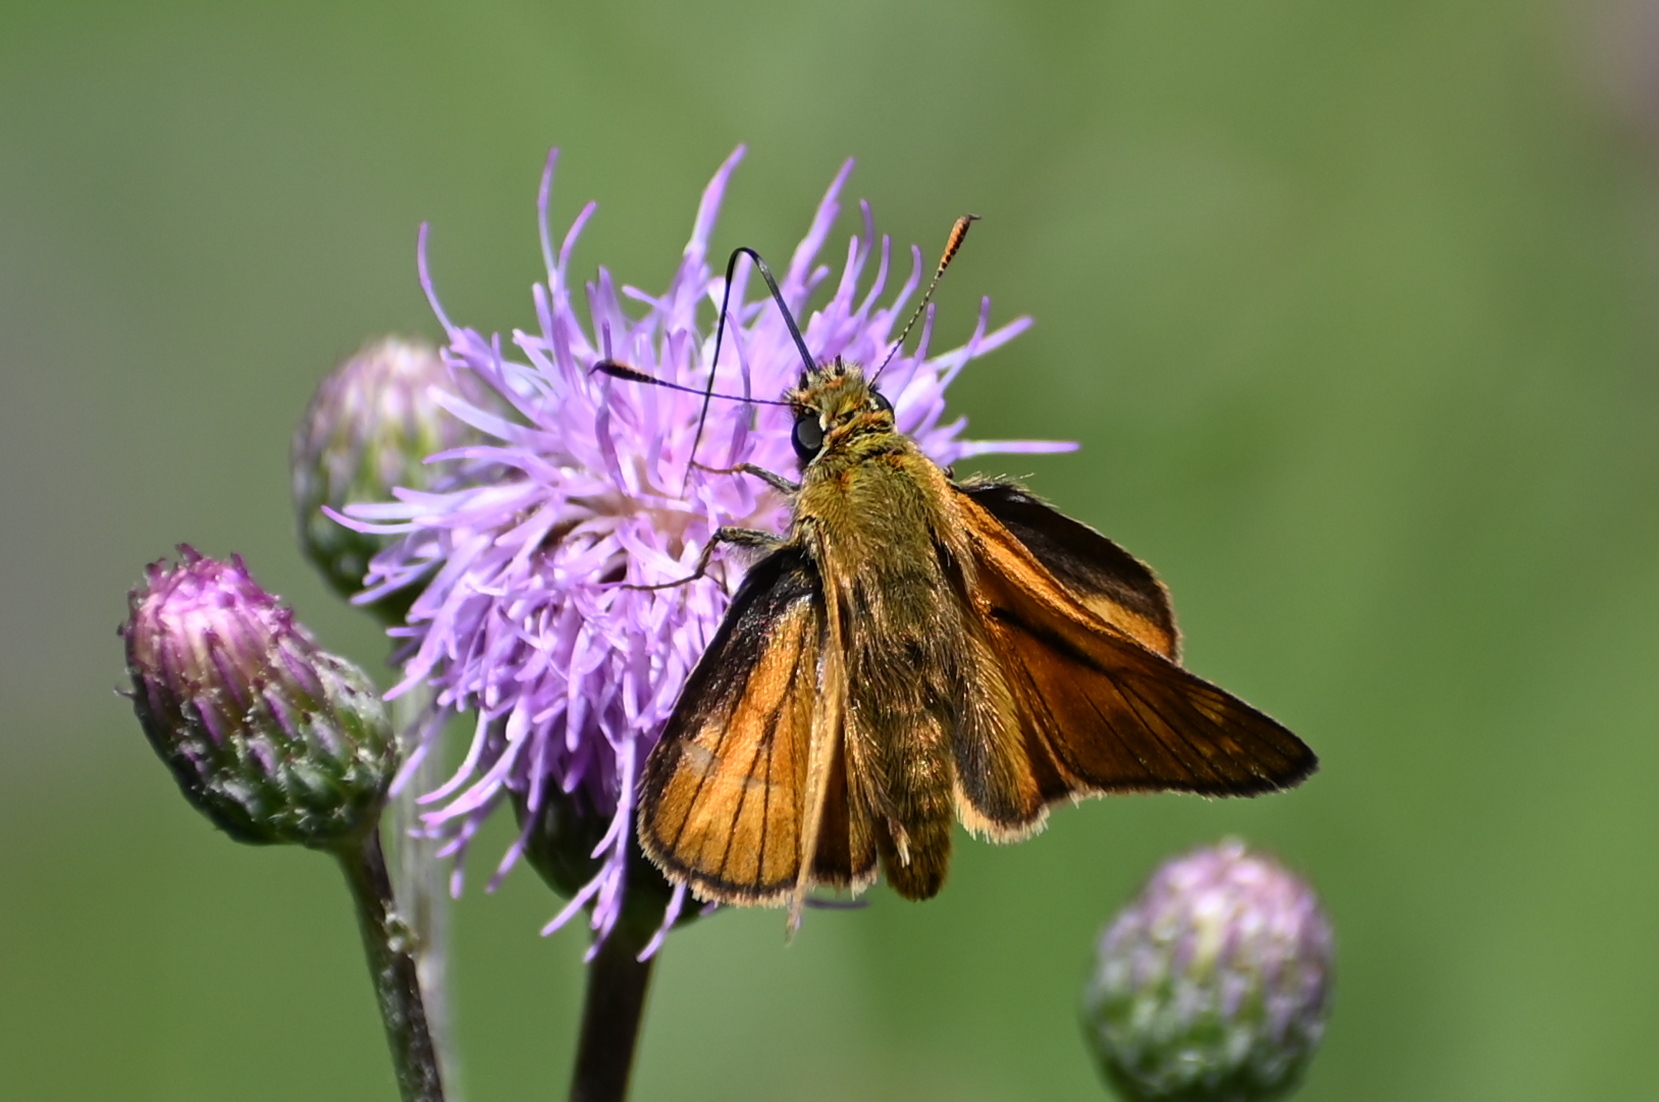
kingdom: Animalia
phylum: Arthropoda
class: Insecta
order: Lepidoptera
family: Hesperiidae
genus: Ochlodes
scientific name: Ochlodes venata
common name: Large skipper
